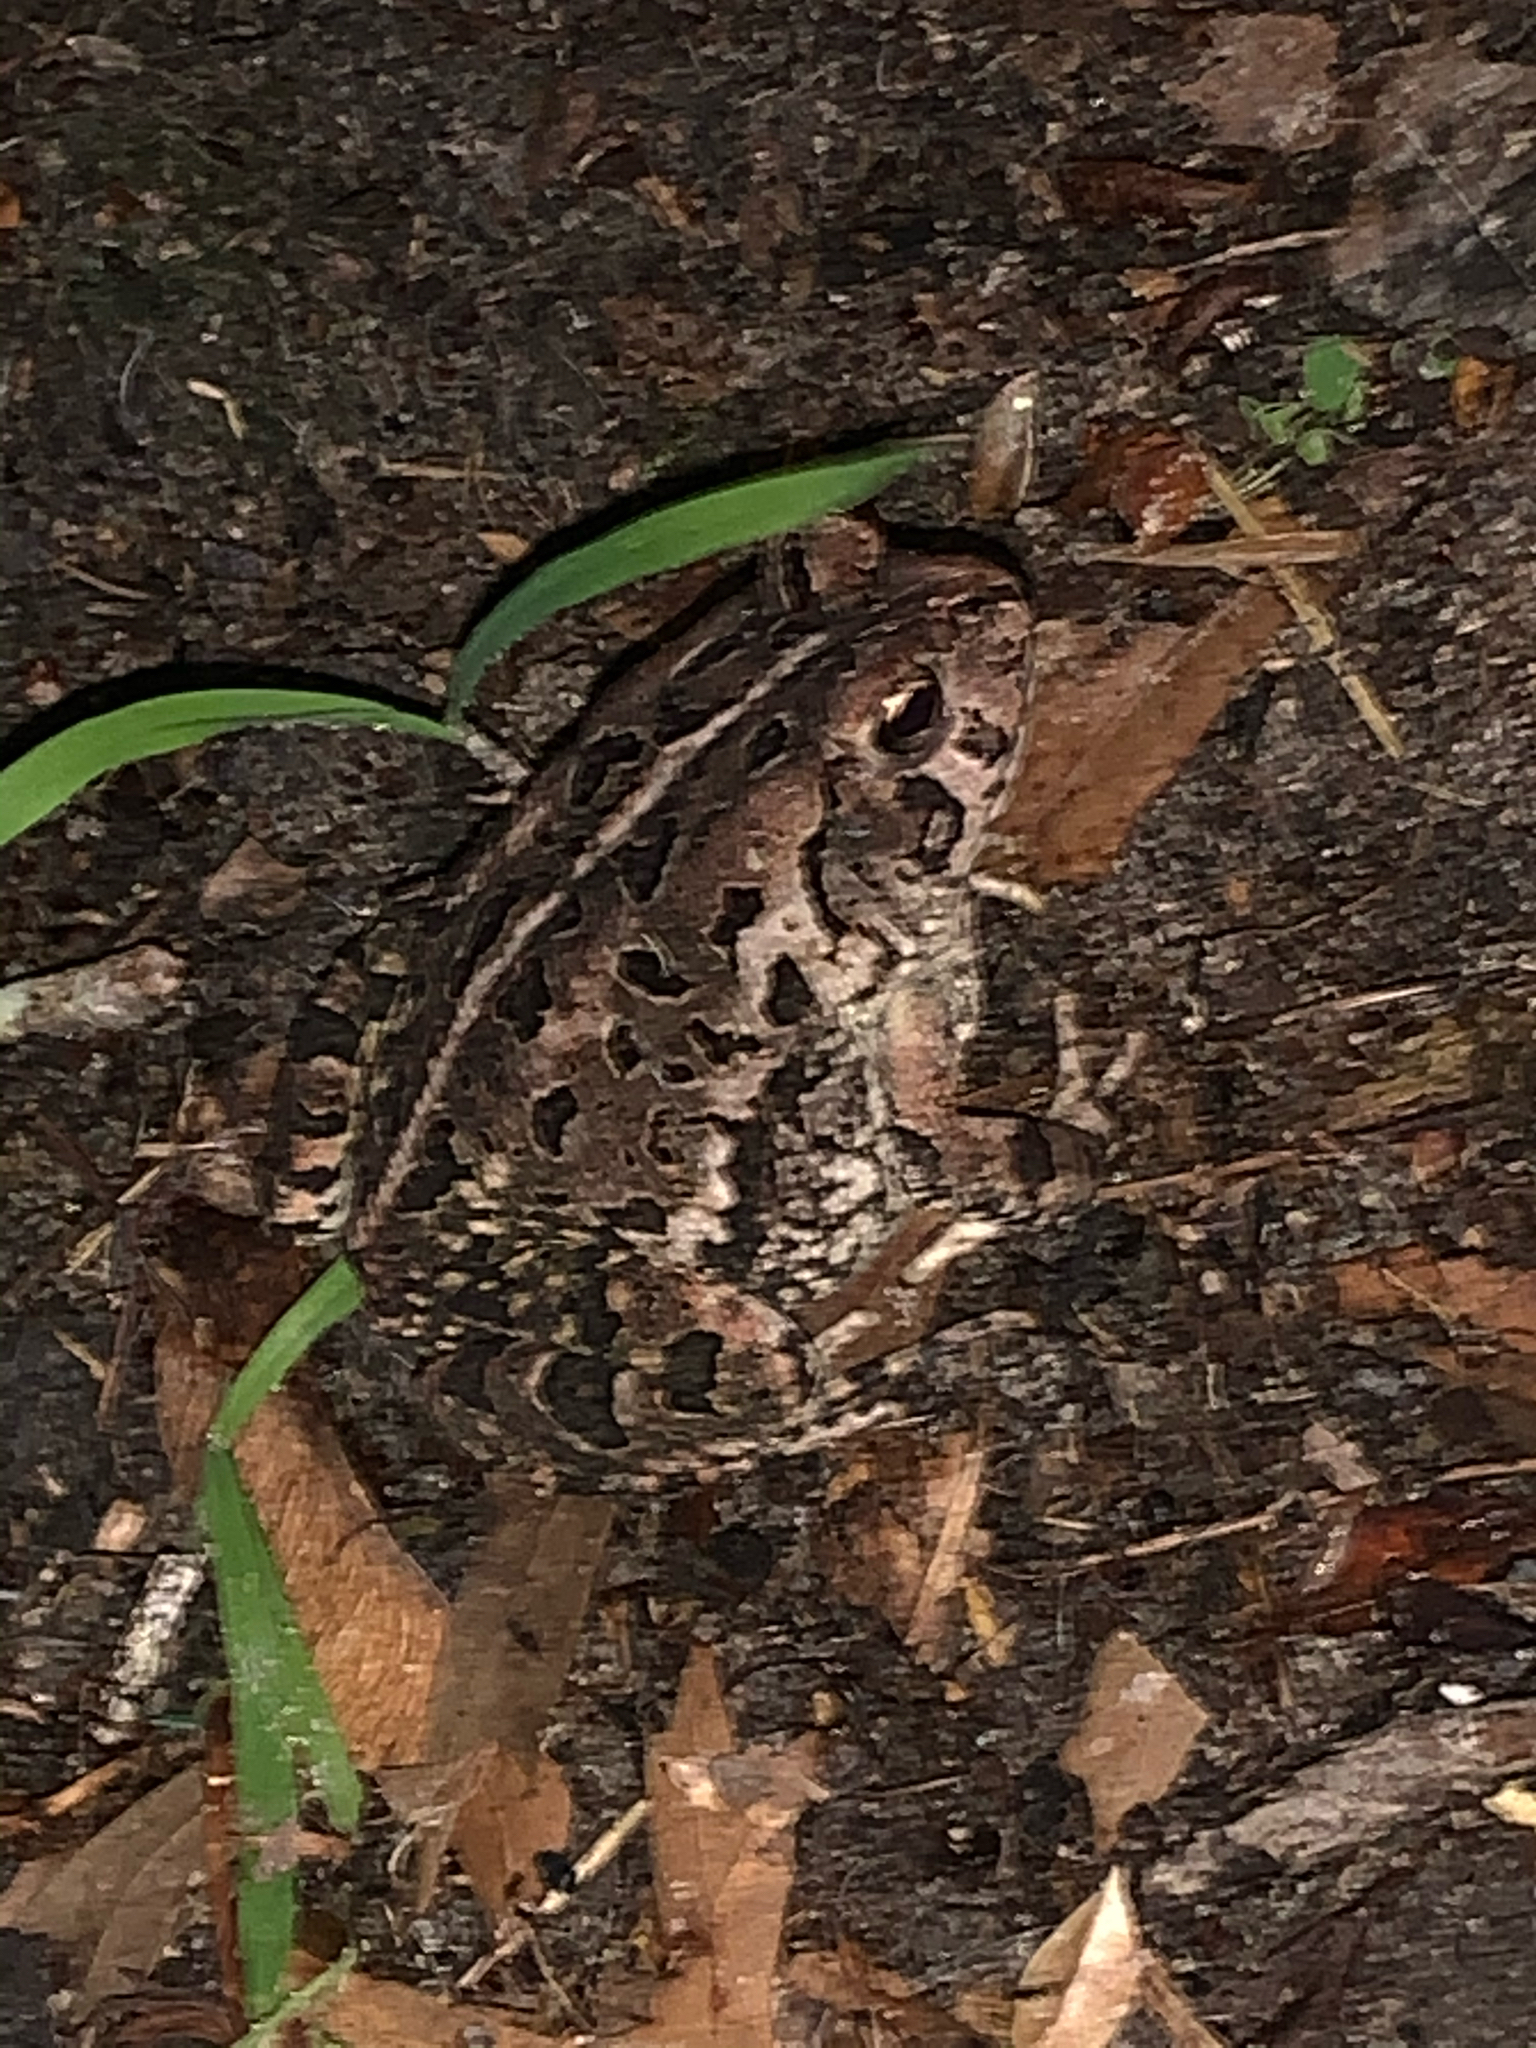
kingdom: Animalia
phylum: Chordata
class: Amphibia
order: Anura
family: Bufonidae
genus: Anaxyrus
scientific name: Anaxyrus fowleri
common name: Fowler's toad
